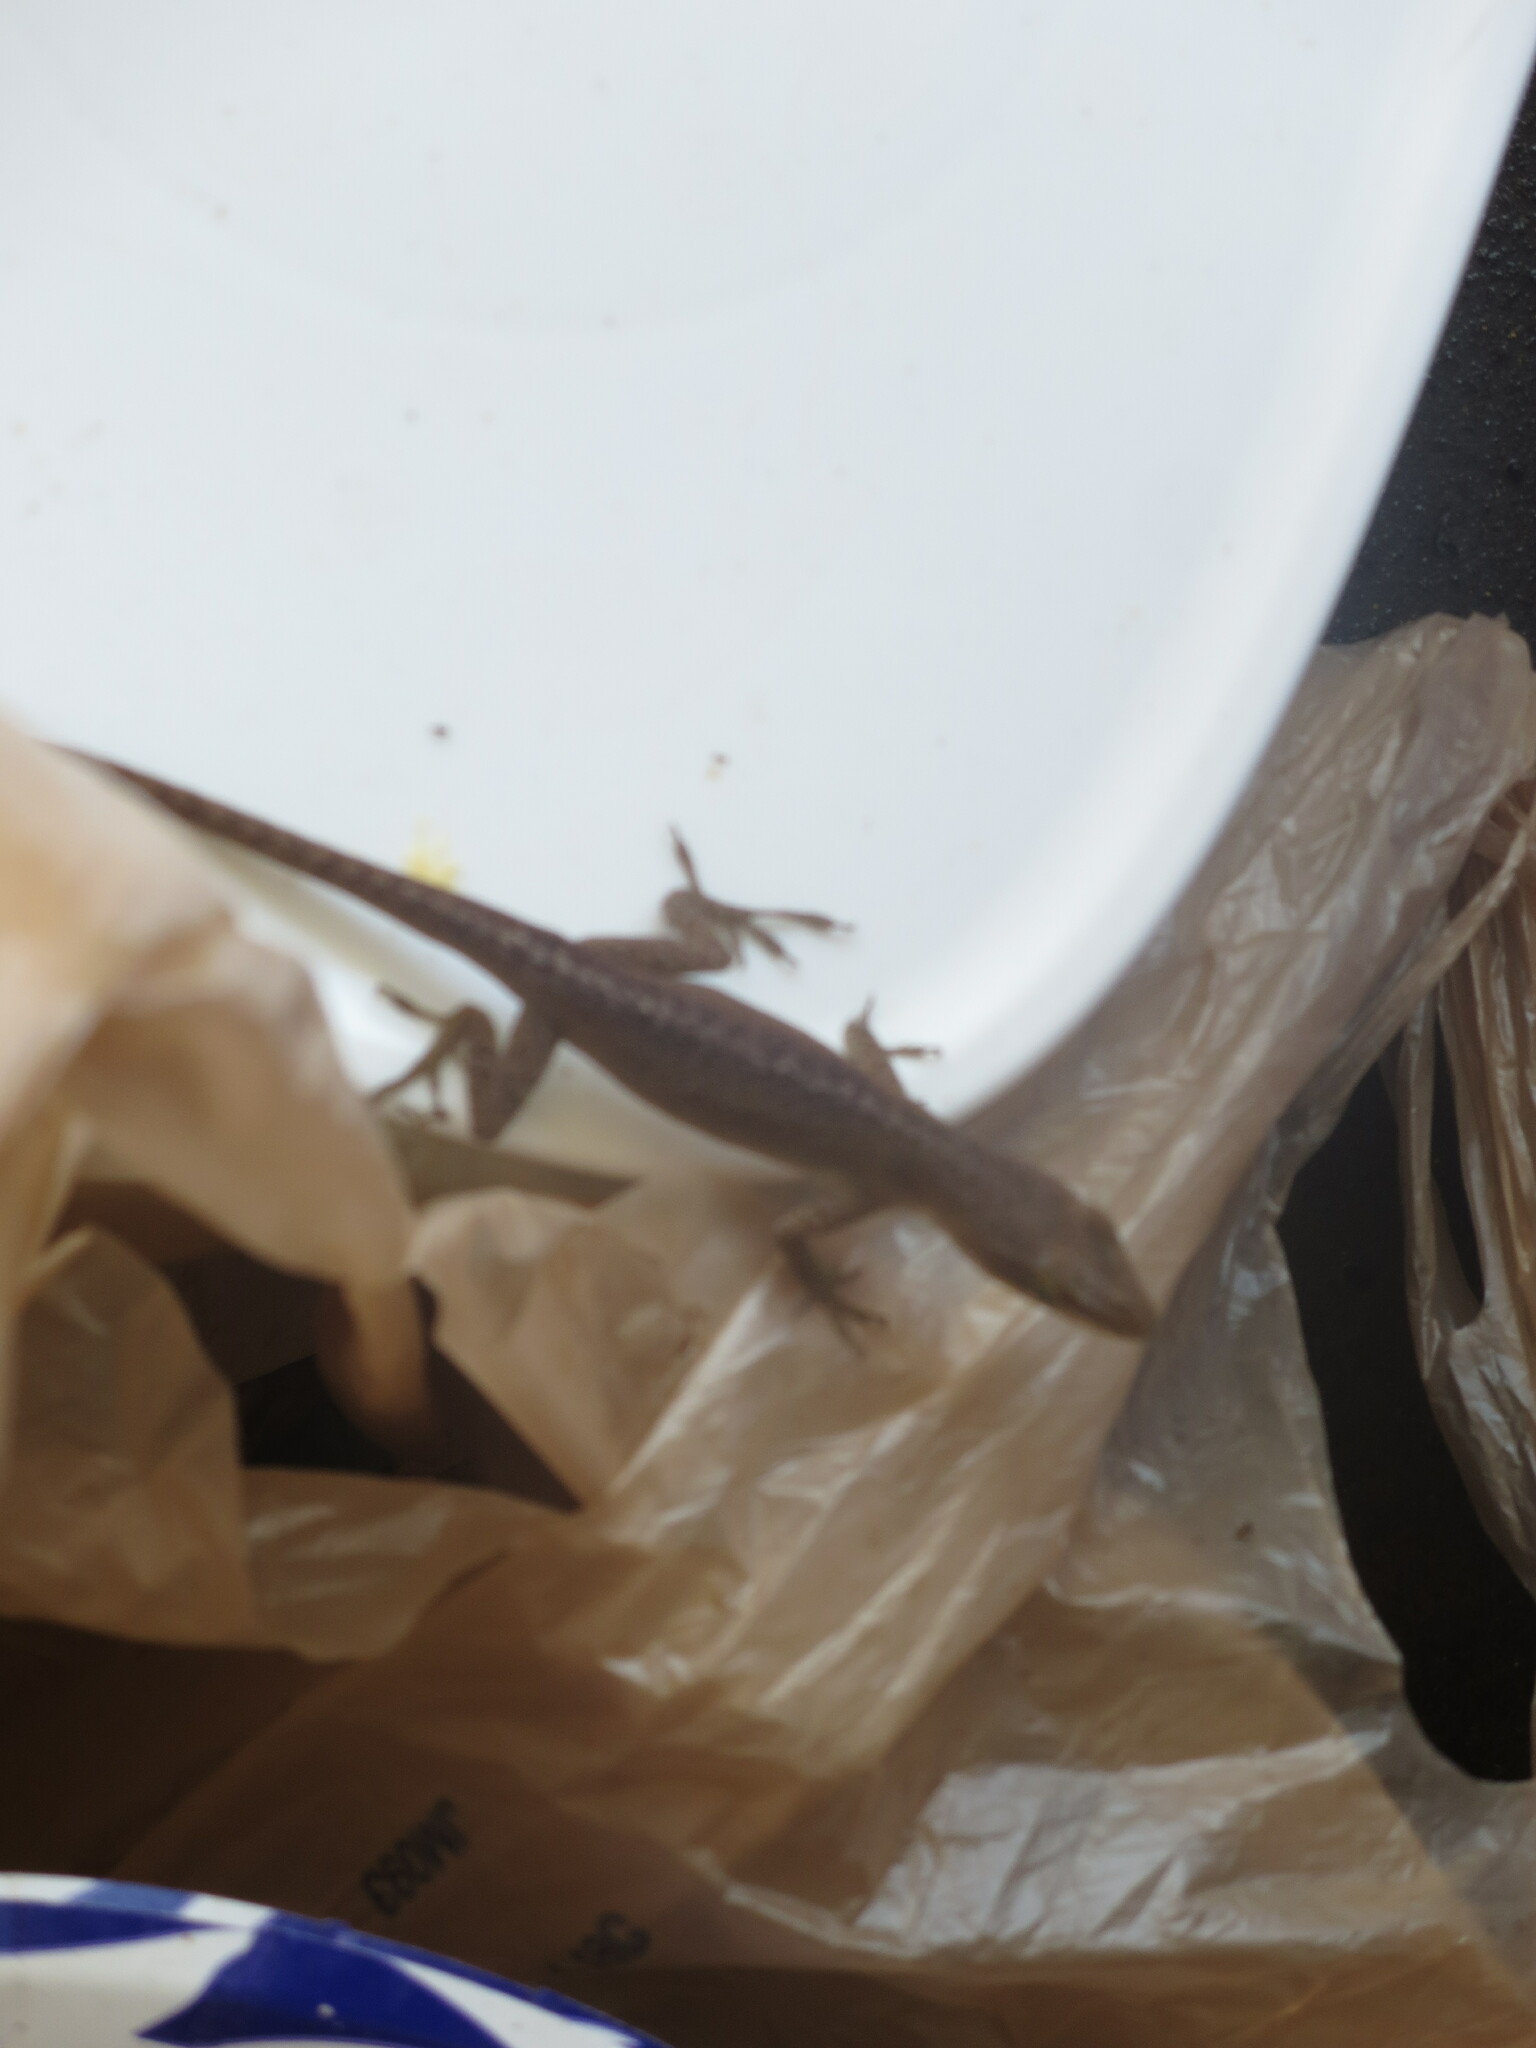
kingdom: Animalia
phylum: Chordata
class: Squamata
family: Dactyloidae
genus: Anolis
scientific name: Anolis carolinensis
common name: Green anole
